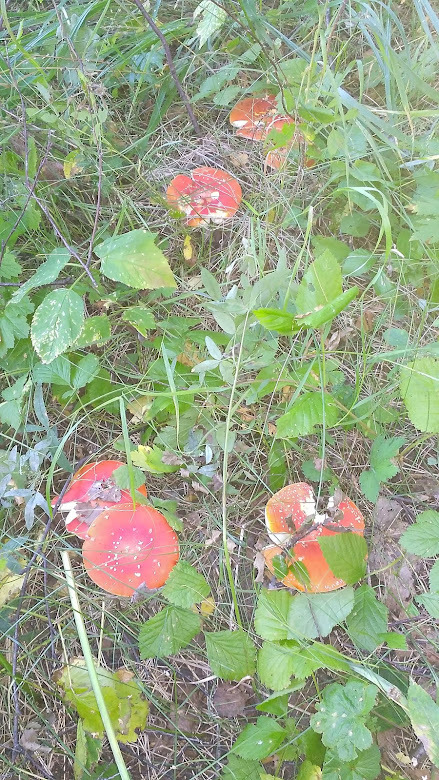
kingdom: Fungi
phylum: Basidiomycota
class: Agaricomycetes
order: Agaricales
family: Amanitaceae
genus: Amanita
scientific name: Amanita muscaria
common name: Fly agaric
